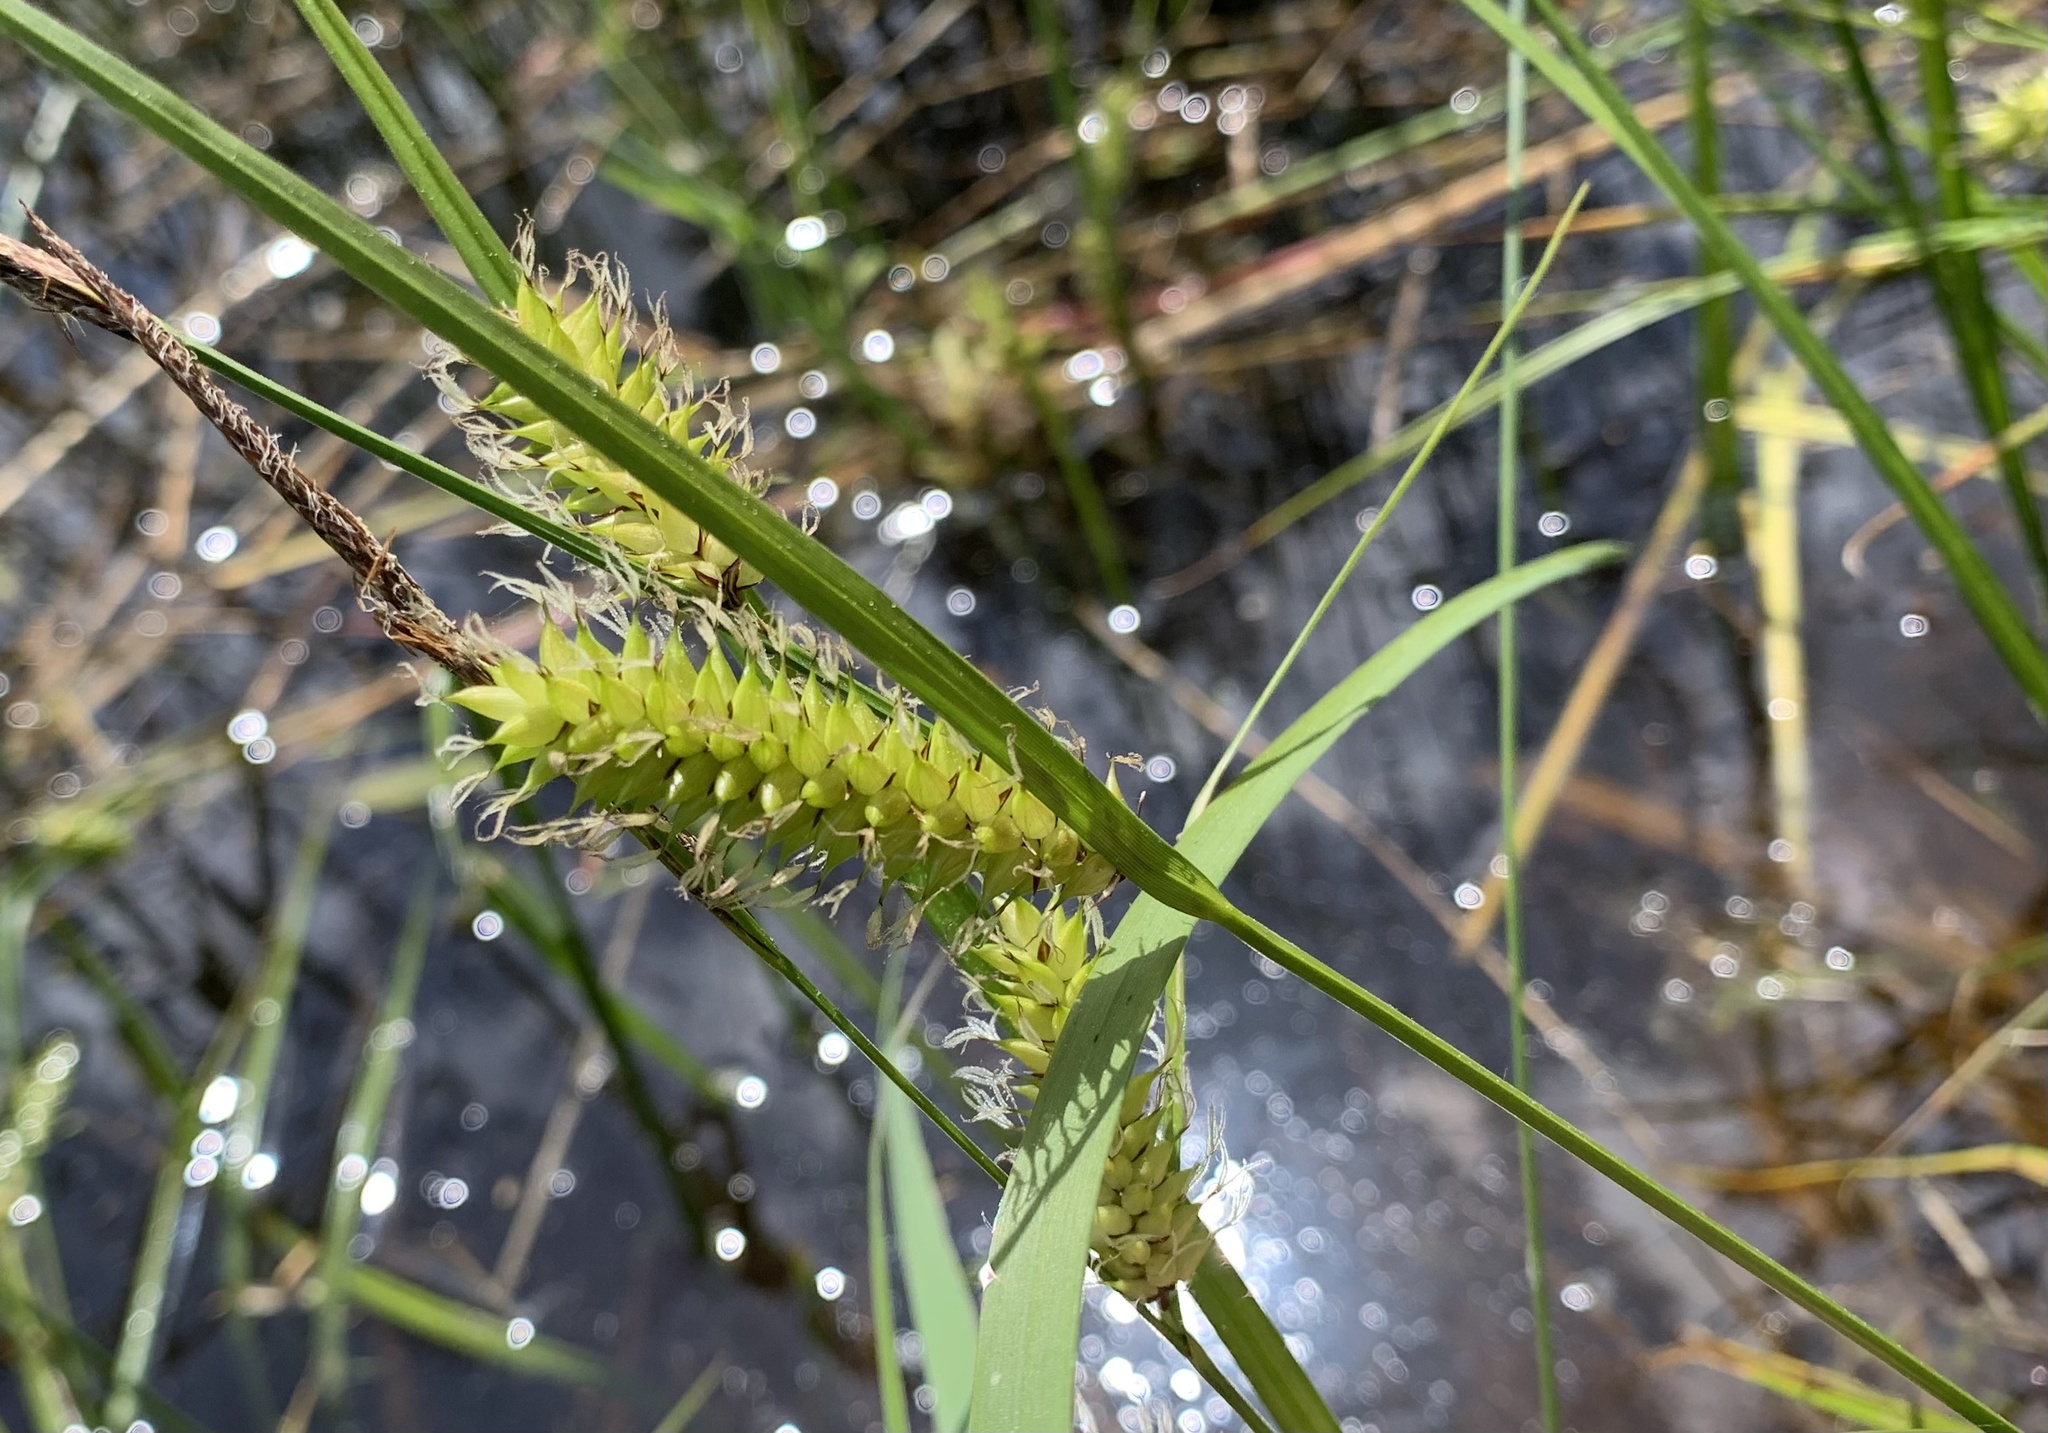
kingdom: Plantae
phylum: Tracheophyta
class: Liliopsida
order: Poales
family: Cyperaceae
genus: Carex
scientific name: Carex vesicaria
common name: Bladder-sedge
